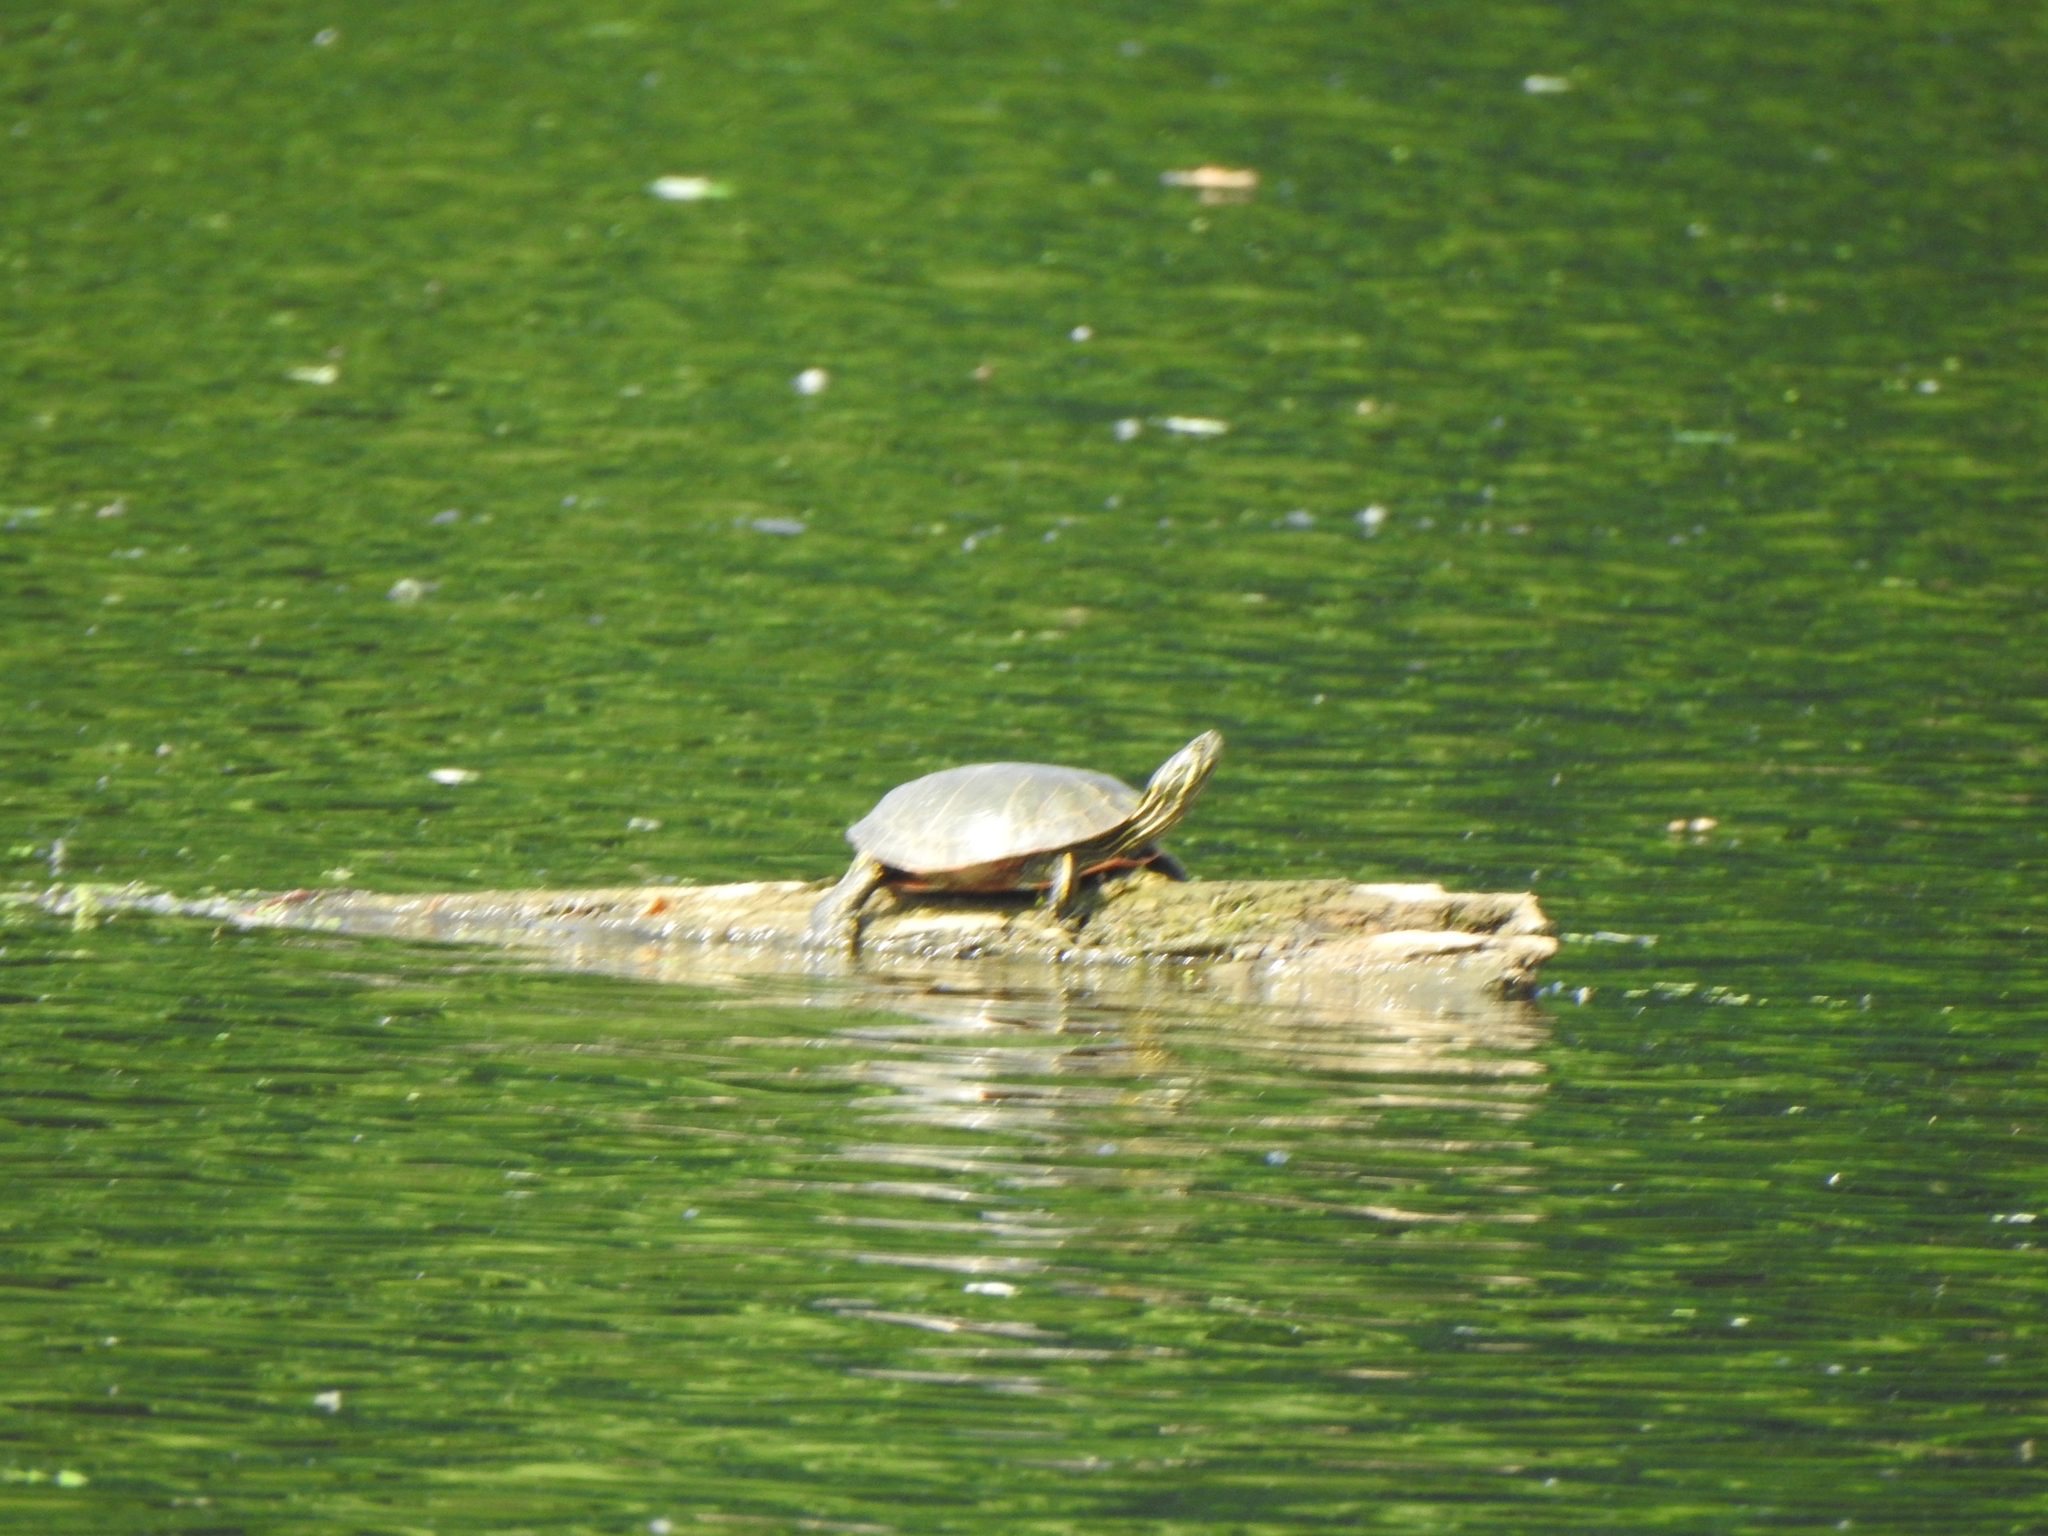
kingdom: Animalia
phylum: Chordata
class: Testudines
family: Emydidae
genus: Chrysemys
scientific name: Chrysemys picta
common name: Painted turtle
